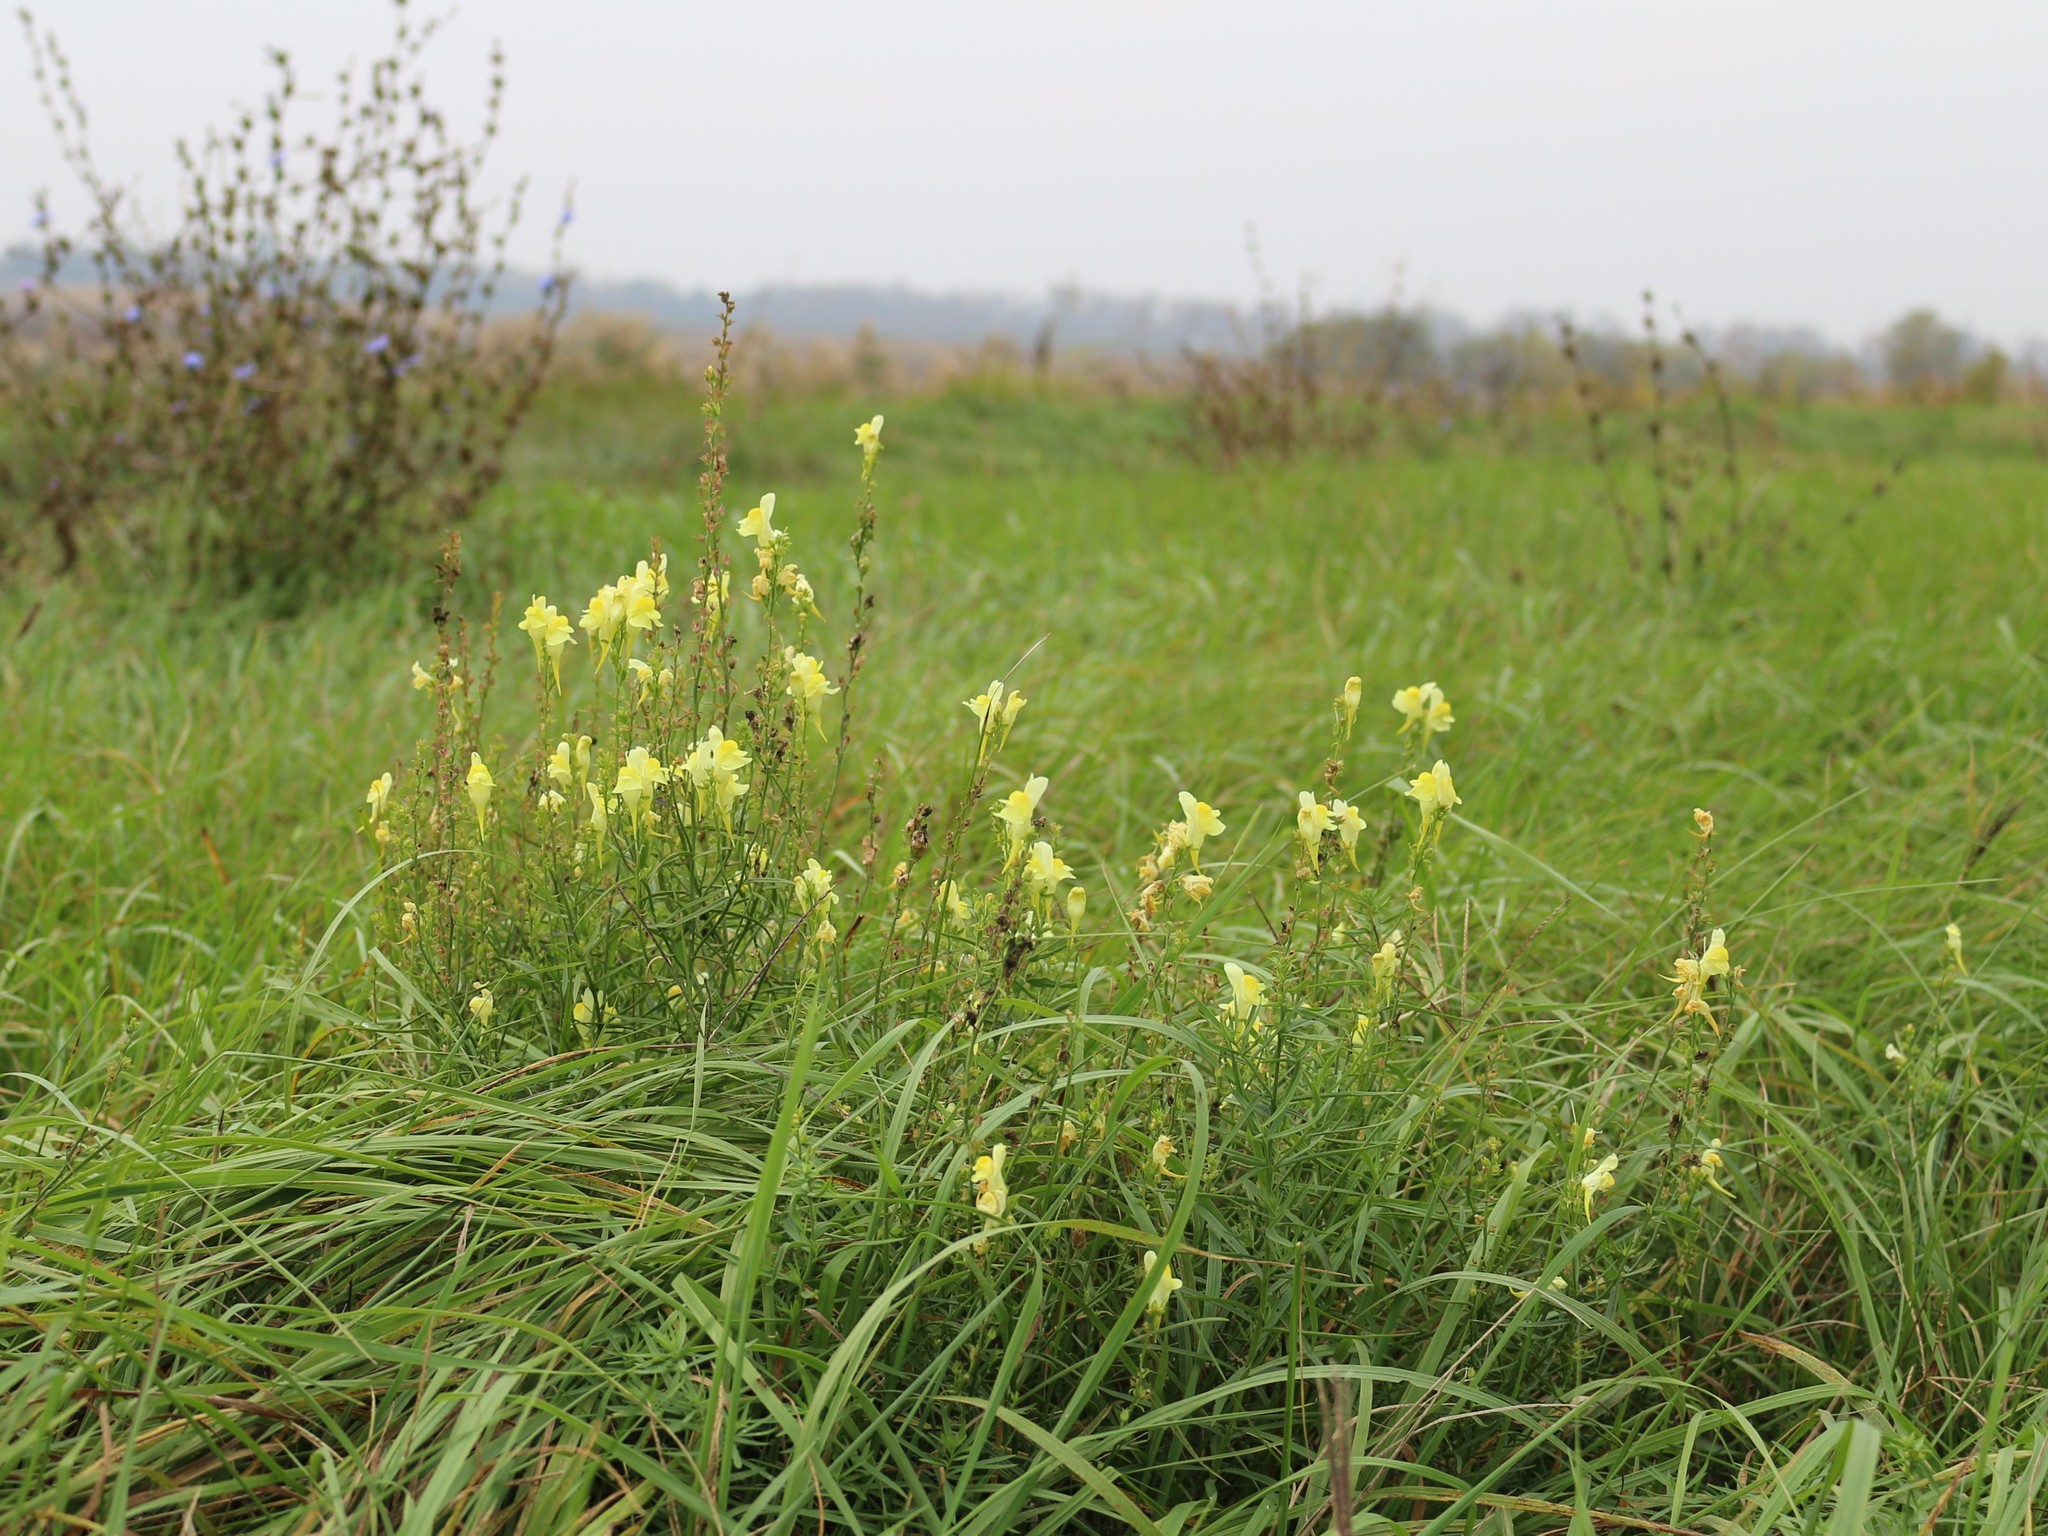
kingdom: Plantae
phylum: Tracheophyta
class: Magnoliopsida
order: Lamiales
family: Plantaginaceae
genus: Linaria
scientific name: Linaria vulgaris
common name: Butter and eggs
